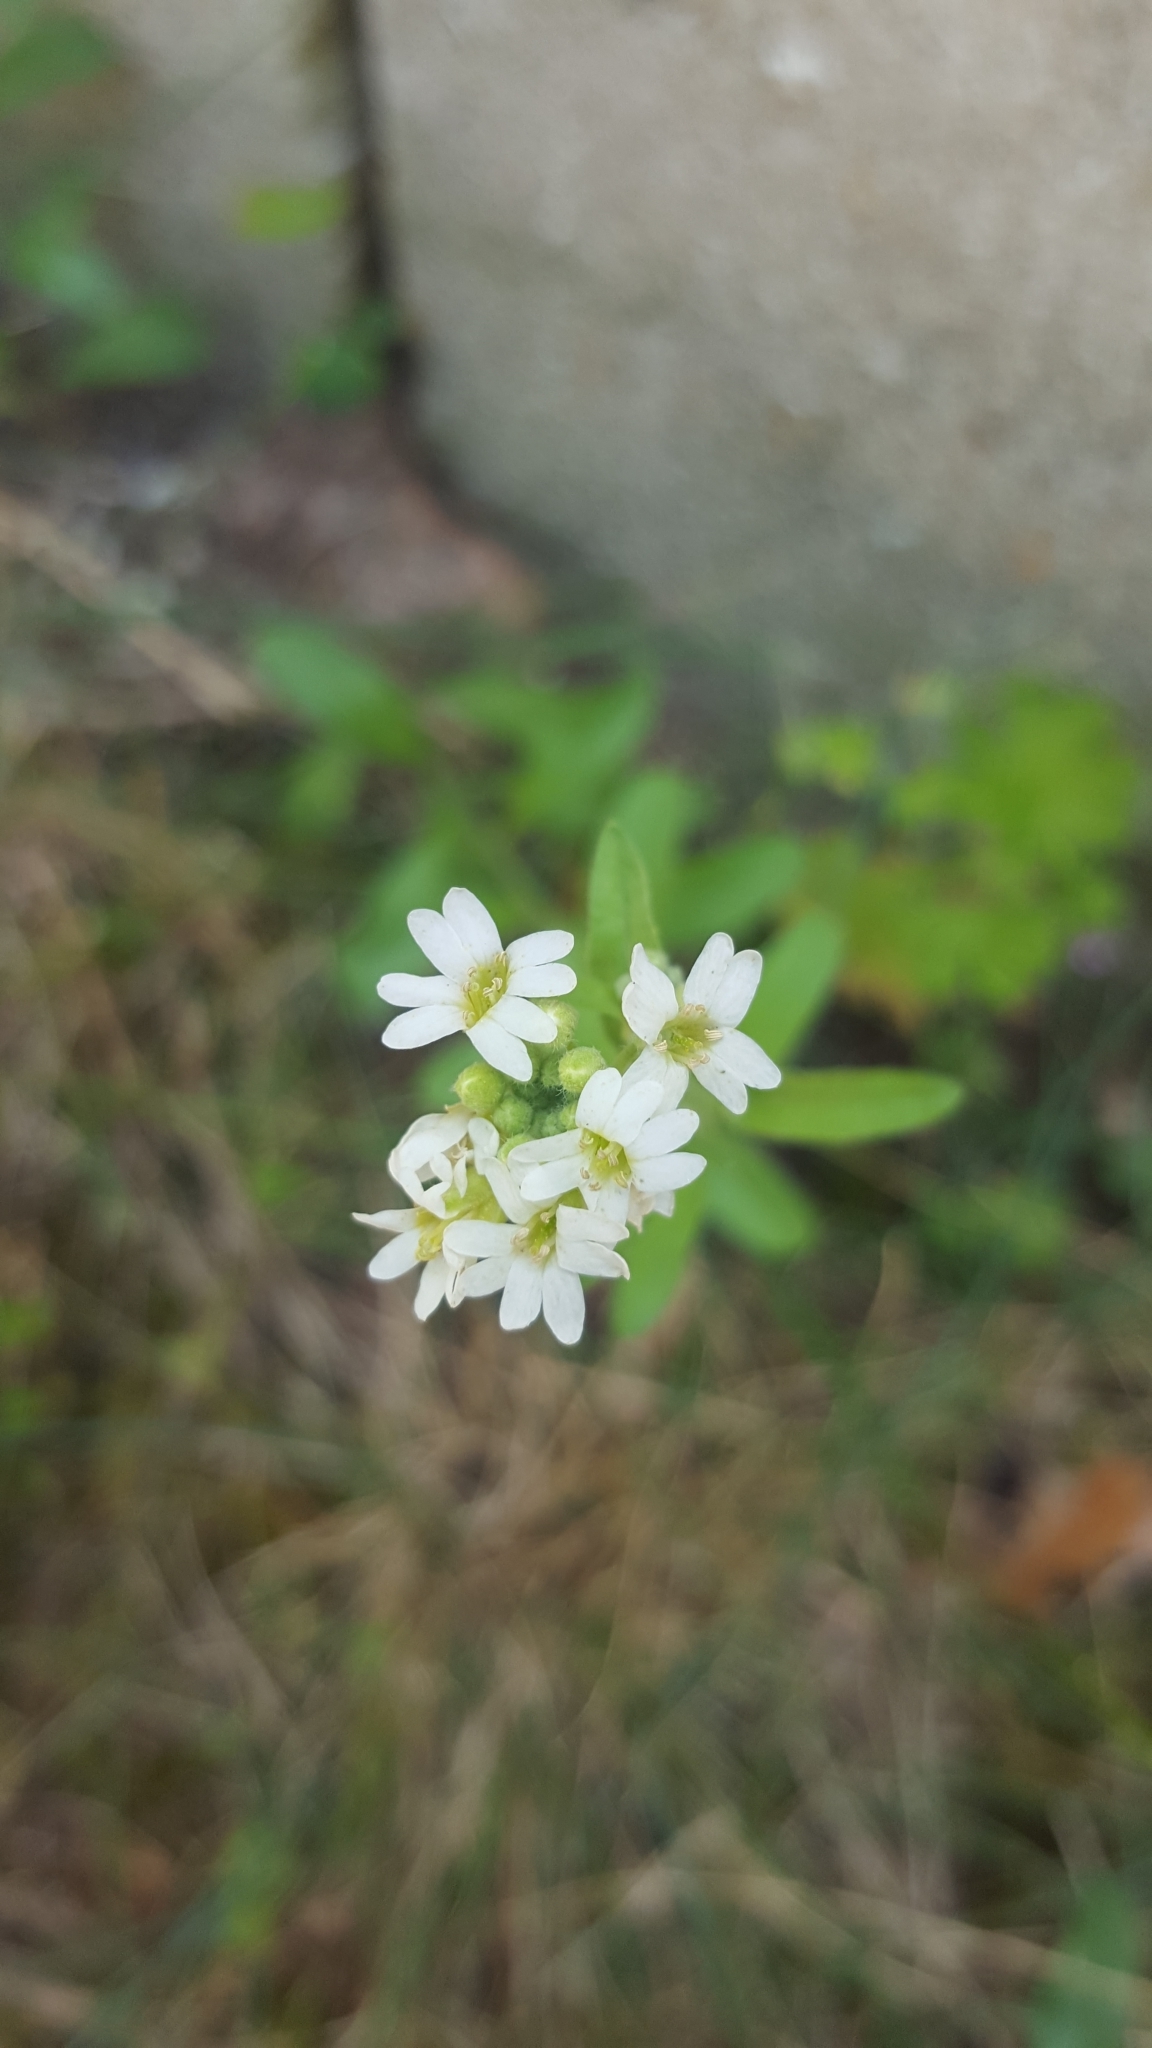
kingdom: Plantae
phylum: Tracheophyta
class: Magnoliopsida
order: Brassicales
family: Brassicaceae
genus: Berteroa
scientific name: Berteroa incana
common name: Hoary alison
